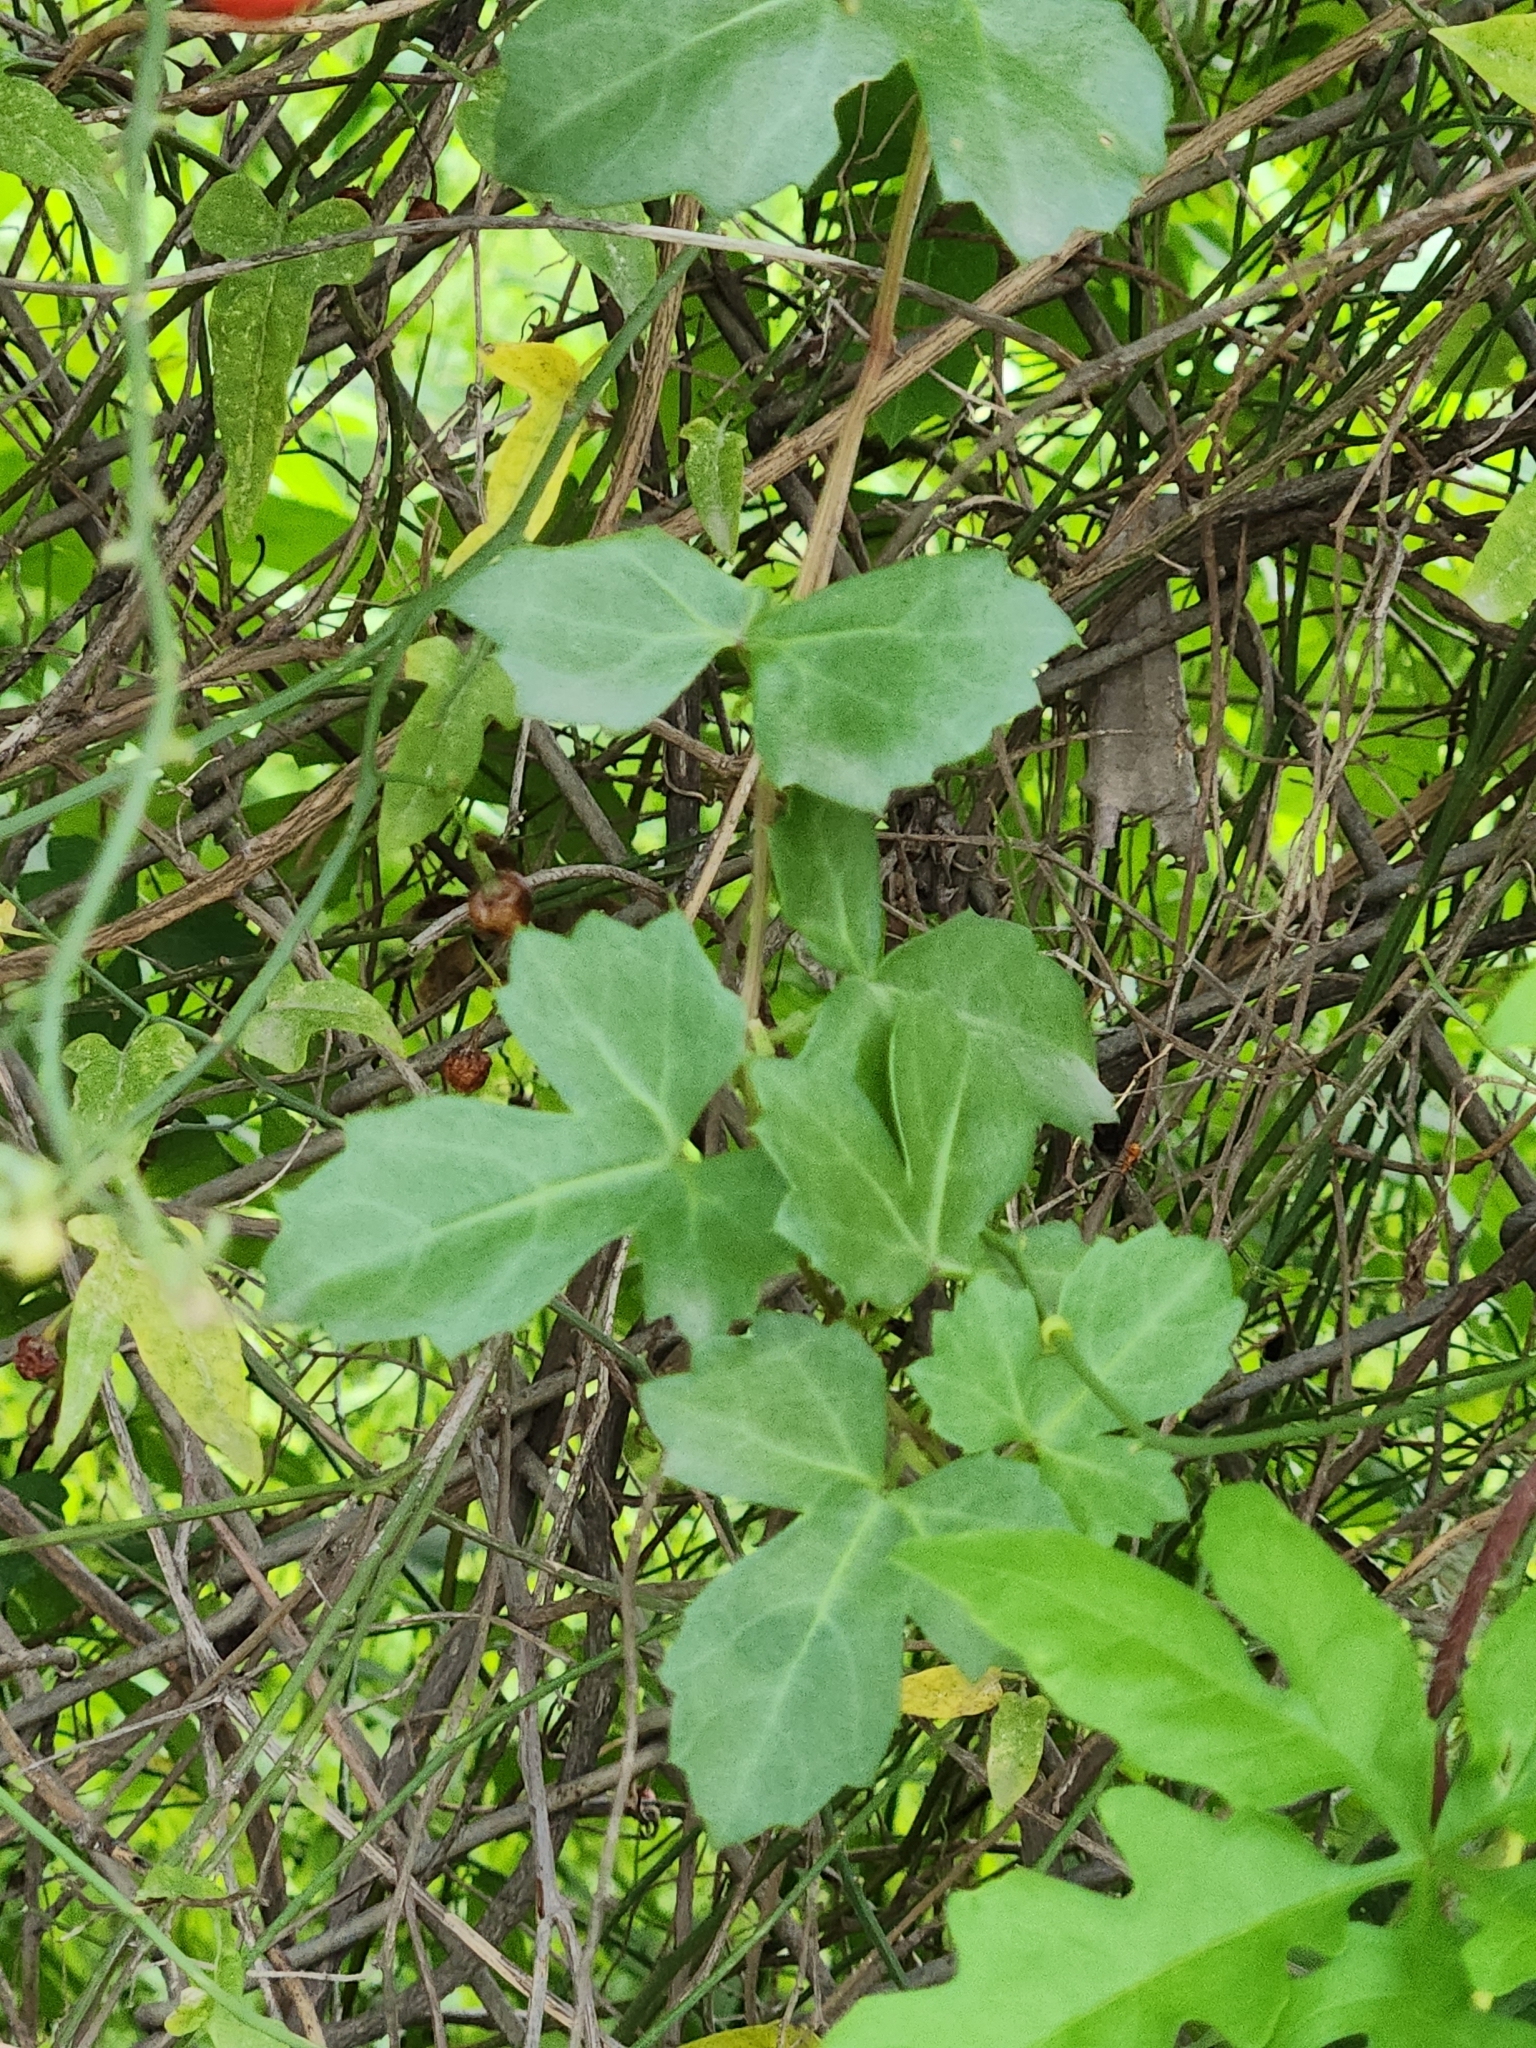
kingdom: Plantae
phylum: Tracheophyta
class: Magnoliopsida
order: Vitales
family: Vitaceae
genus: Cissus
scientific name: Cissus trifoliata
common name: Vine-sorrel
